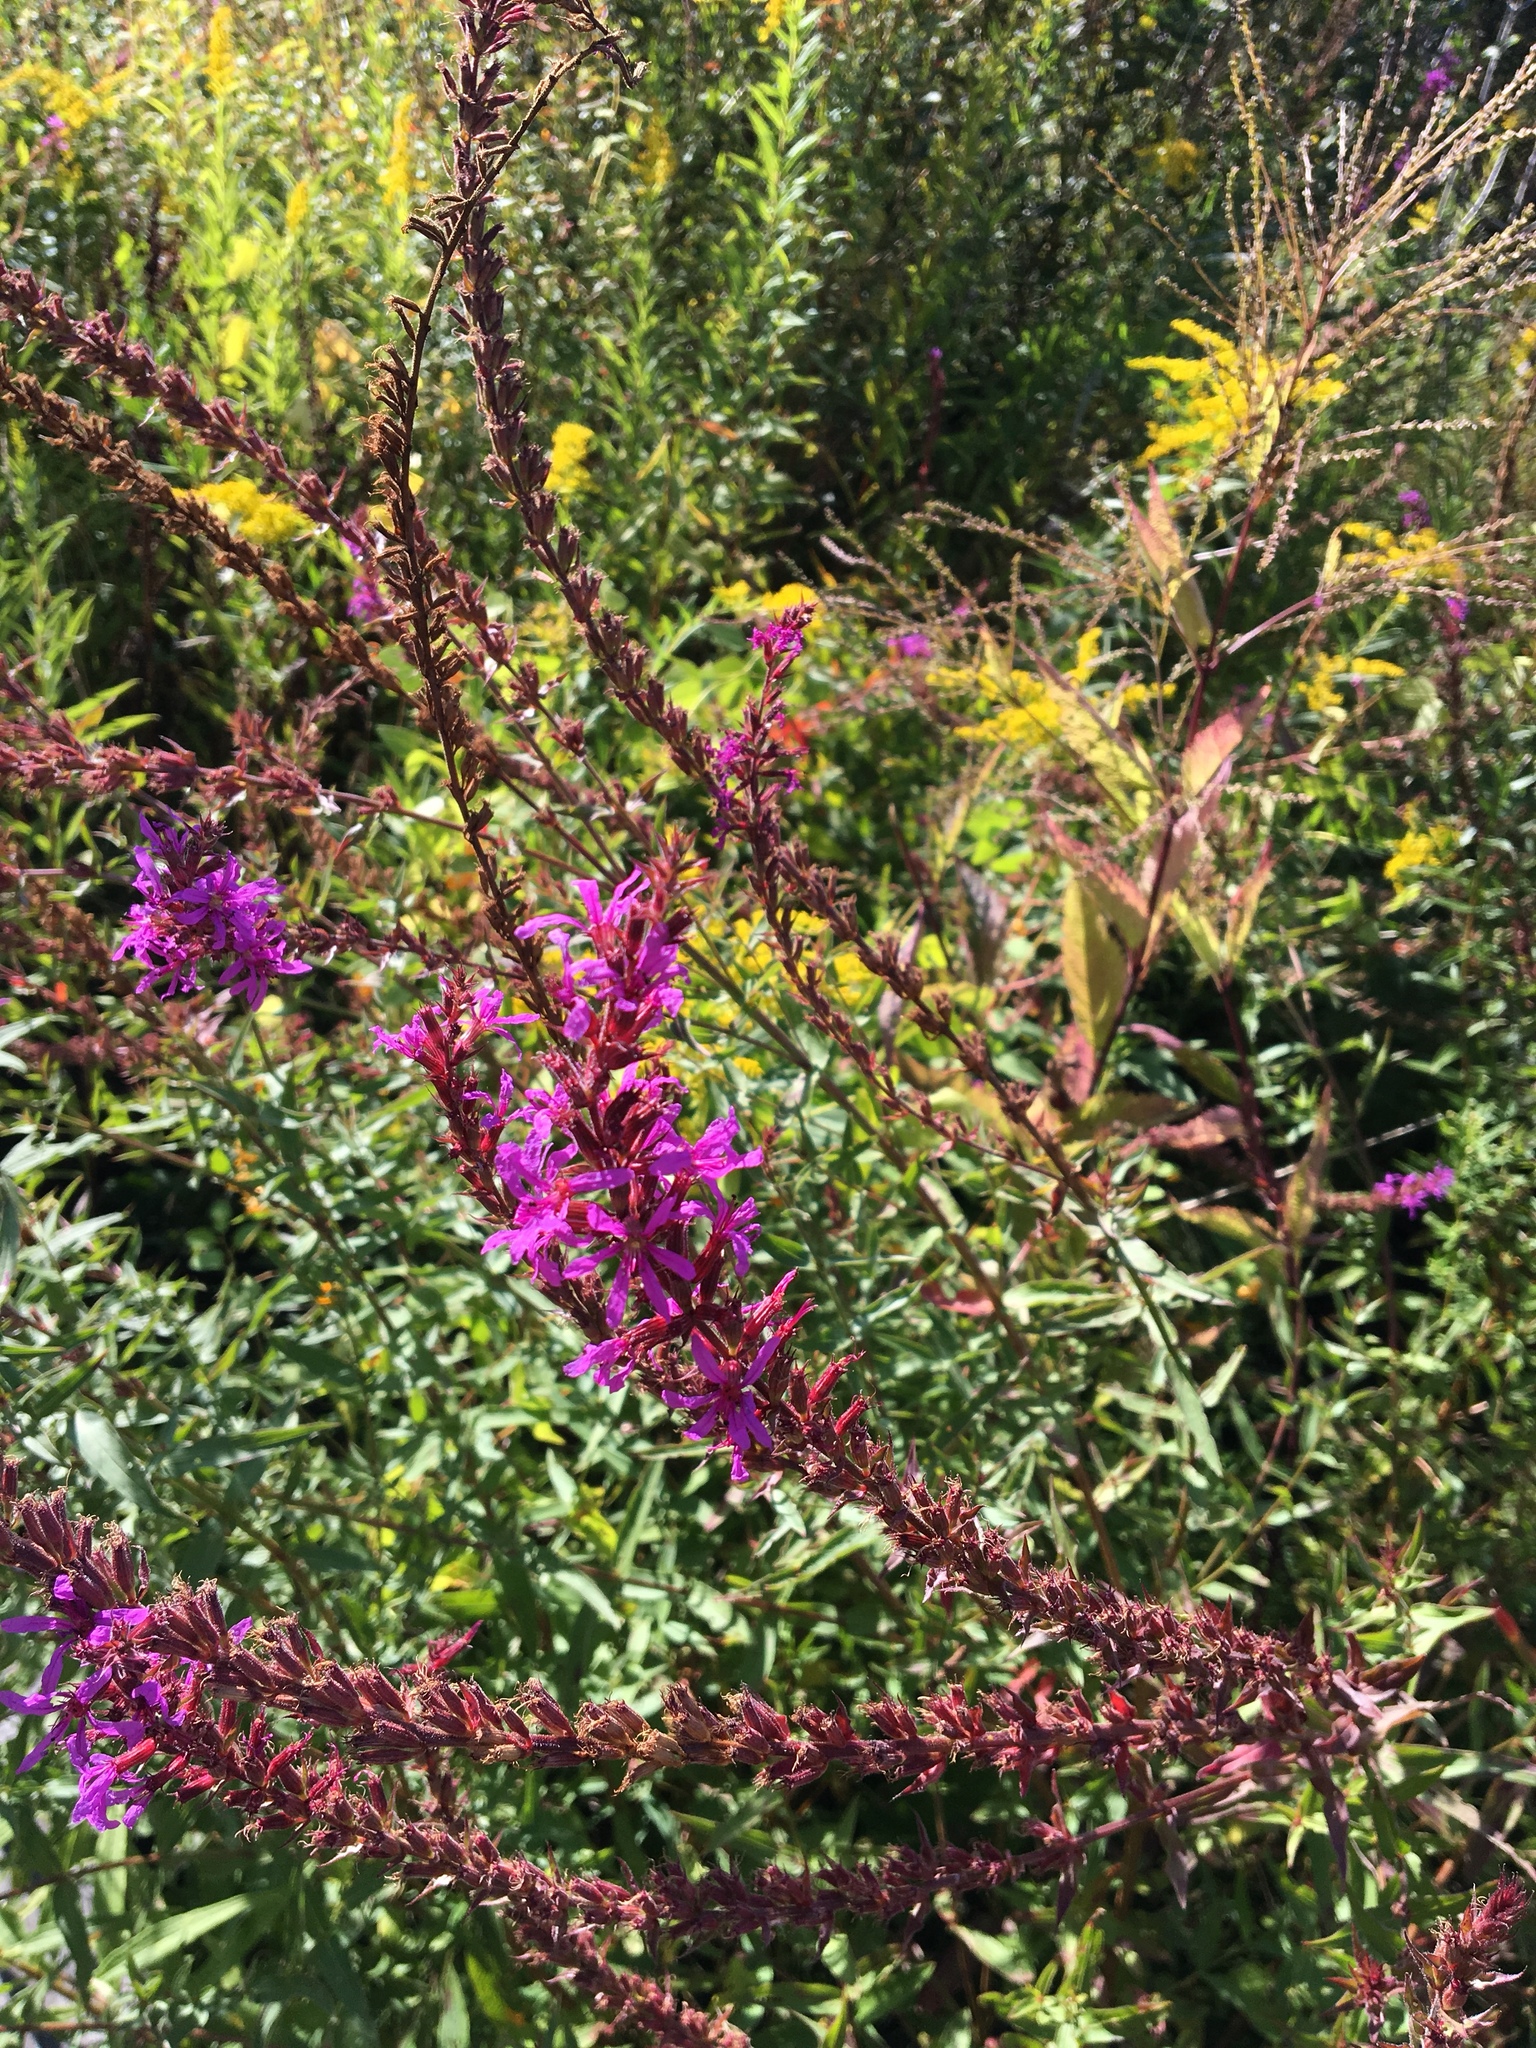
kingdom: Plantae
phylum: Tracheophyta
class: Magnoliopsida
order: Myrtales
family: Lythraceae
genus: Lythrum
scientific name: Lythrum salicaria
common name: Purple loosestrife
